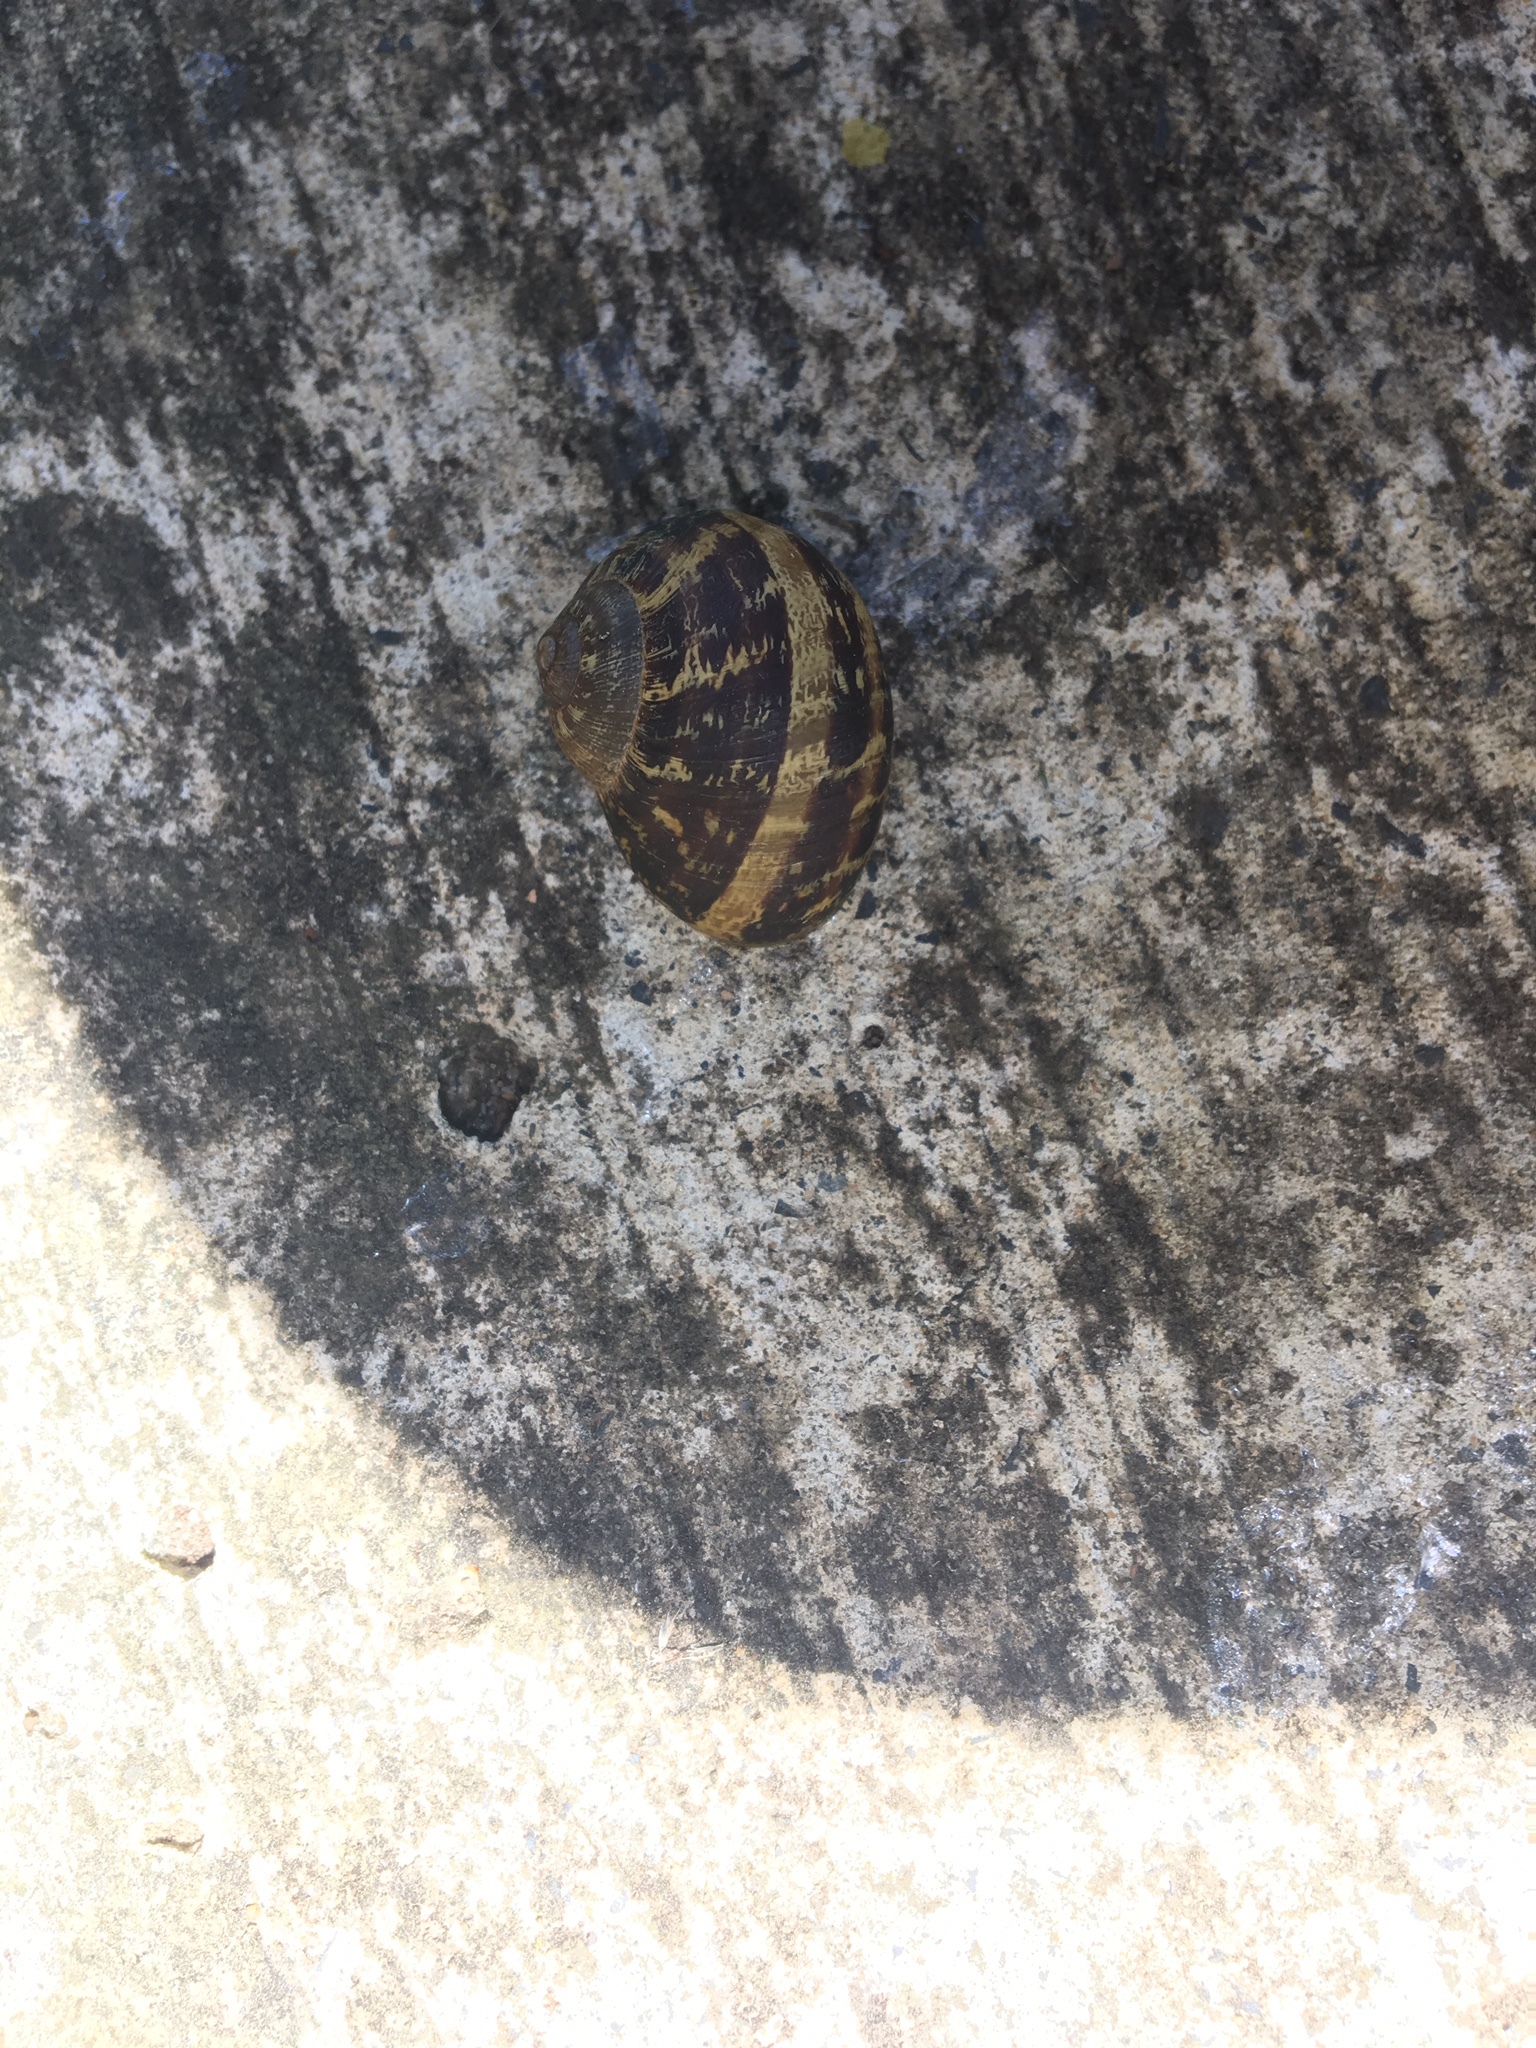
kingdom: Animalia
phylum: Mollusca
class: Gastropoda
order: Stylommatophora
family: Helicidae
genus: Cornu
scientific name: Cornu aspersum
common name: Brown garden snail
